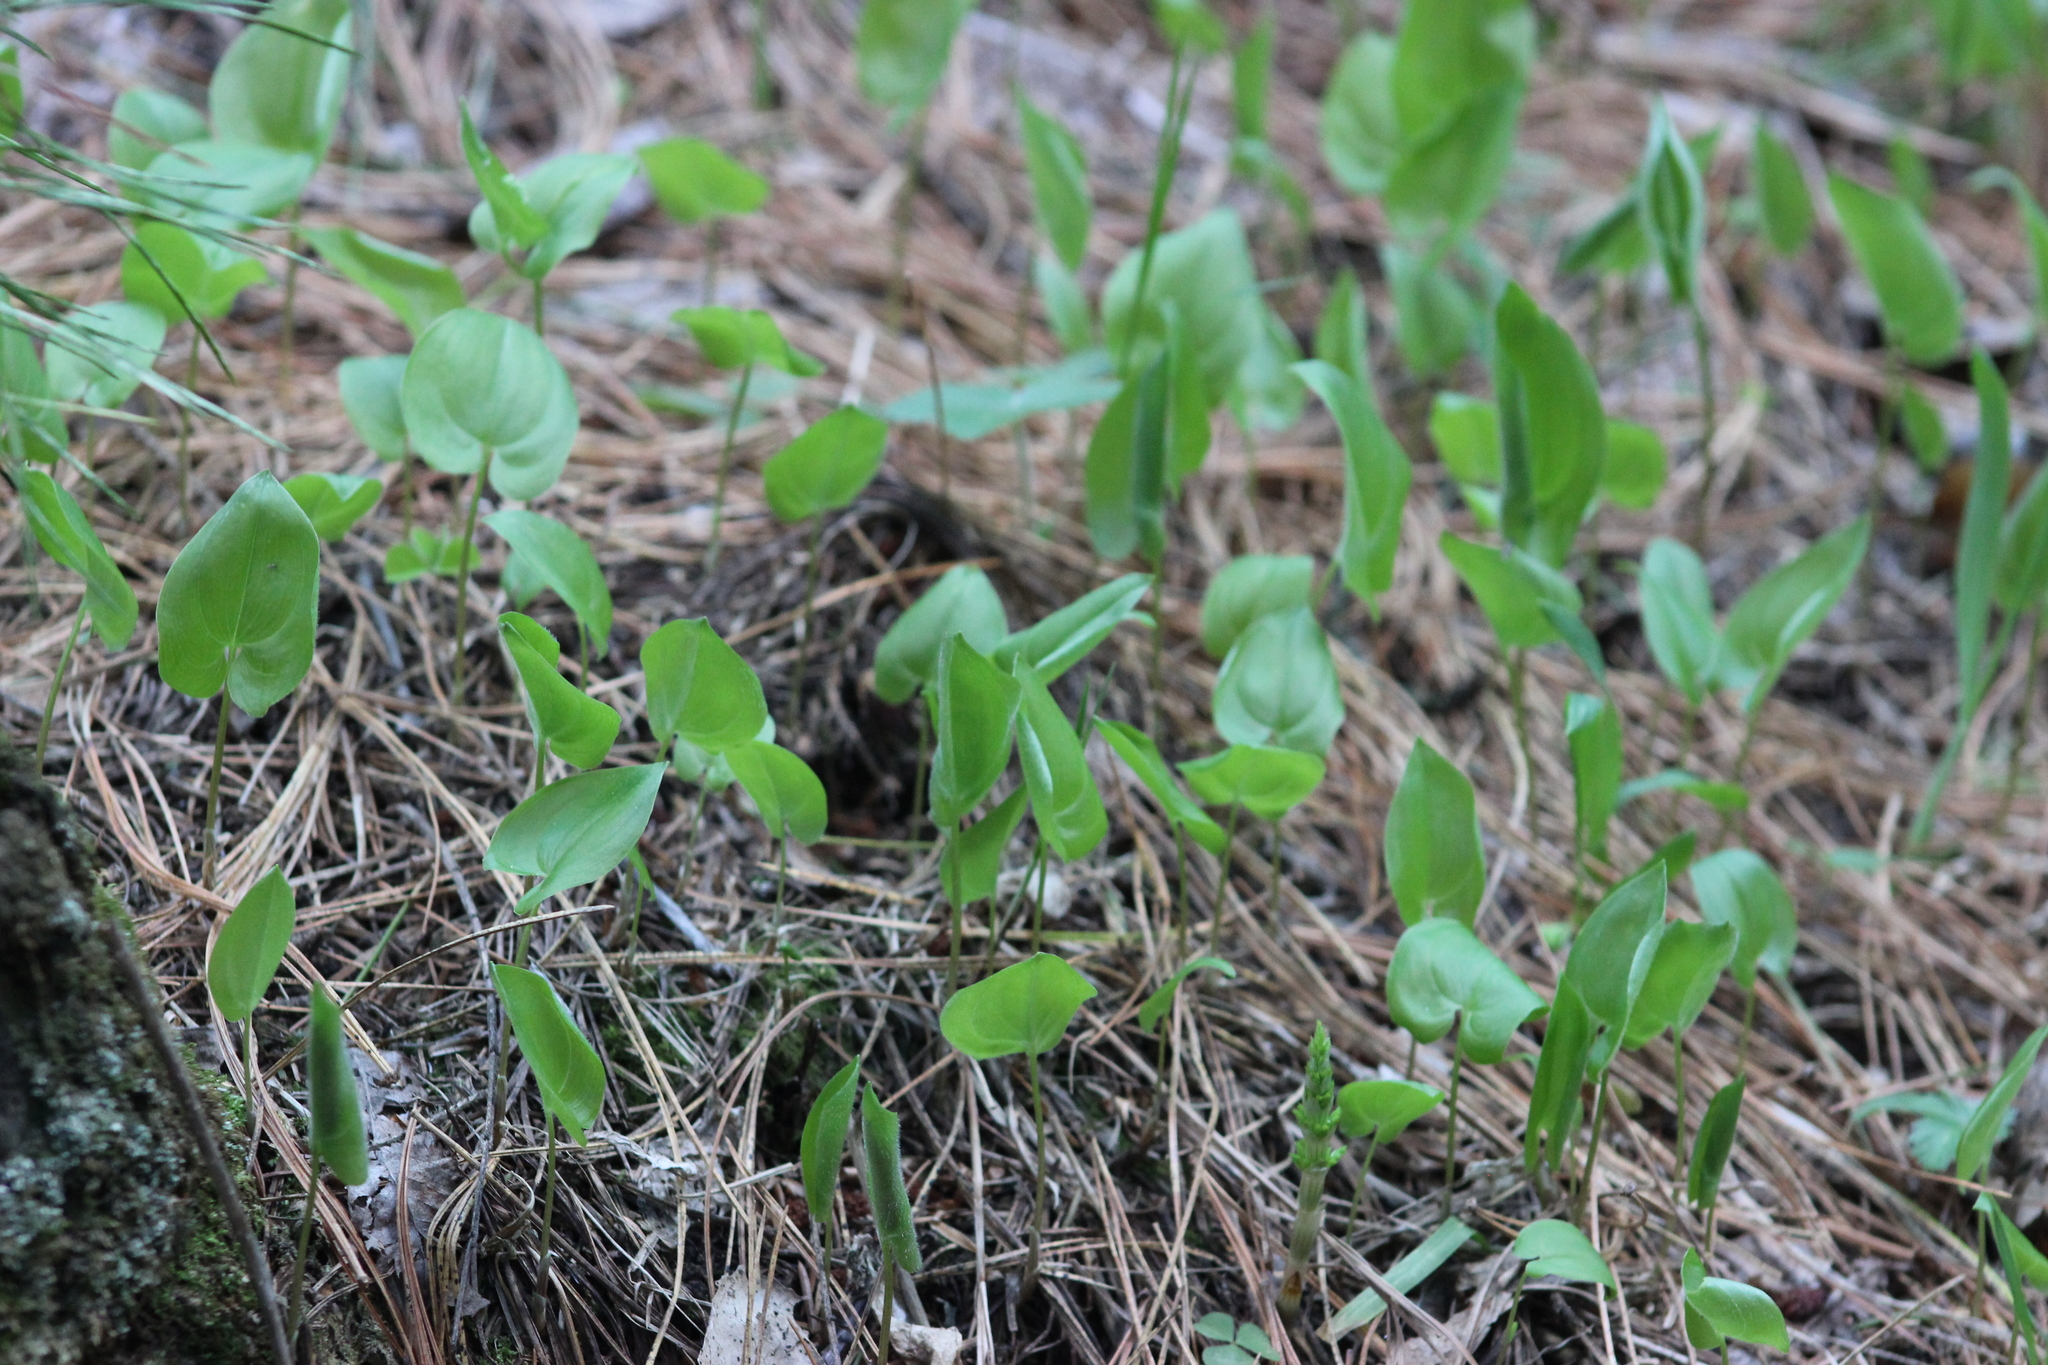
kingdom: Plantae
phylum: Tracheophyta
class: Liliopsida
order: Asparagales
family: Asparagaceae
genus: Maianthemum
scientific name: Maianthemum bifolium
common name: May lily
